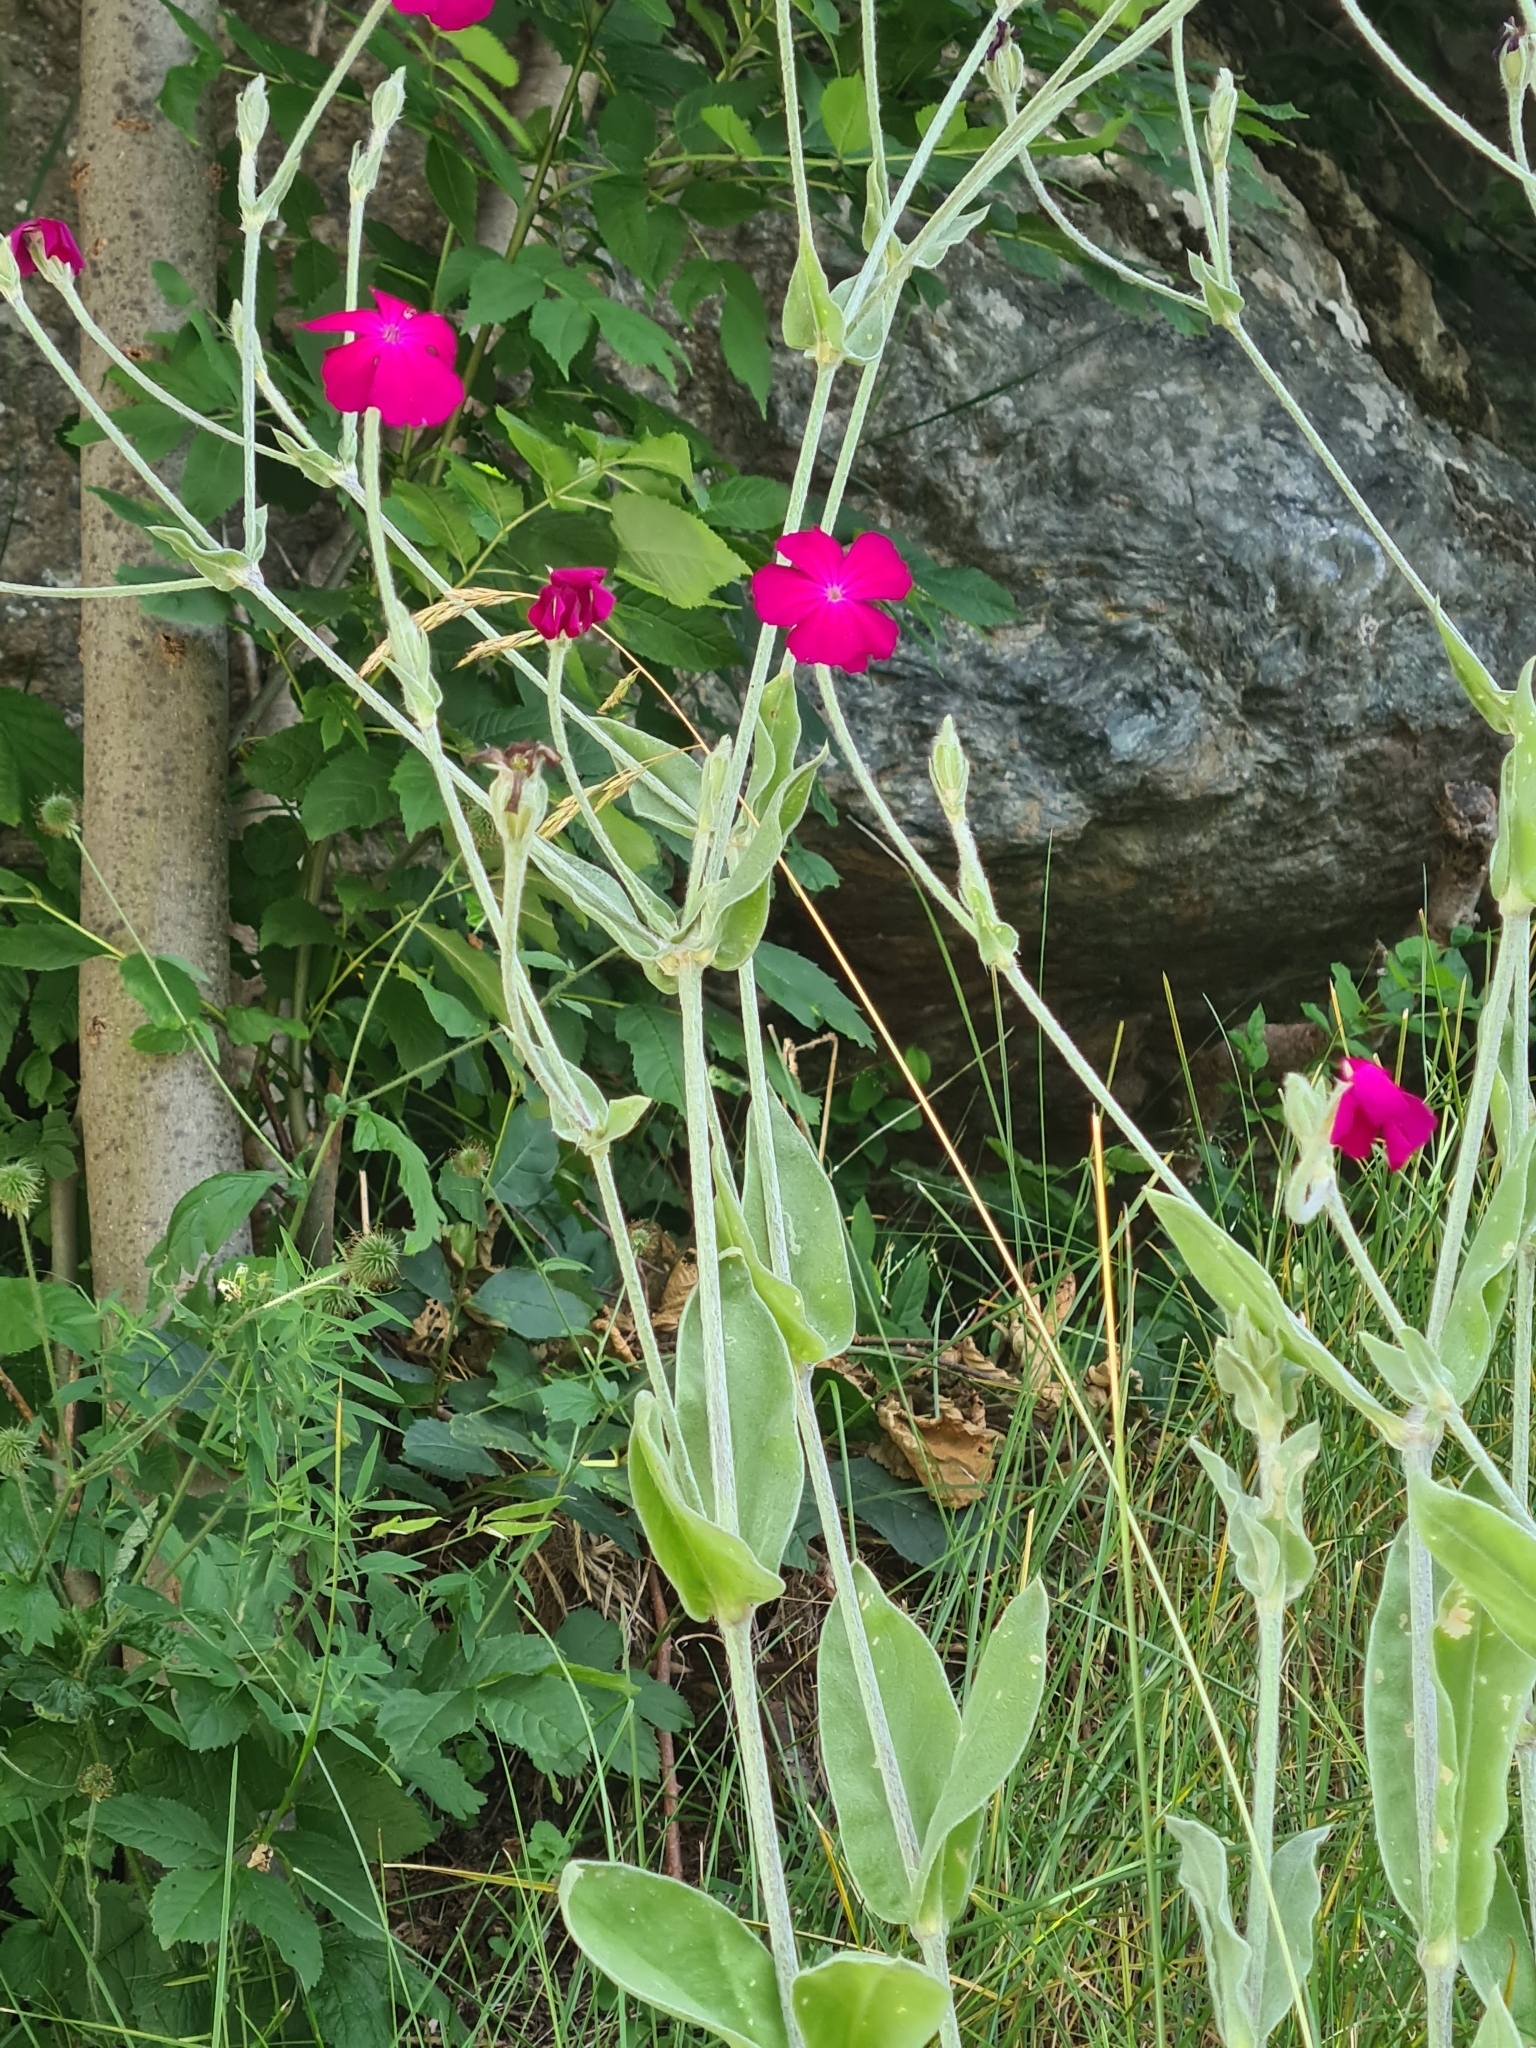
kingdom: Plantae
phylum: Tracheophyta
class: Magnoliopsida
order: Caryophyllales
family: Caryophyllaceae
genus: Dianthus
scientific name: Dianthus carthusianorum
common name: Carthusian pink
